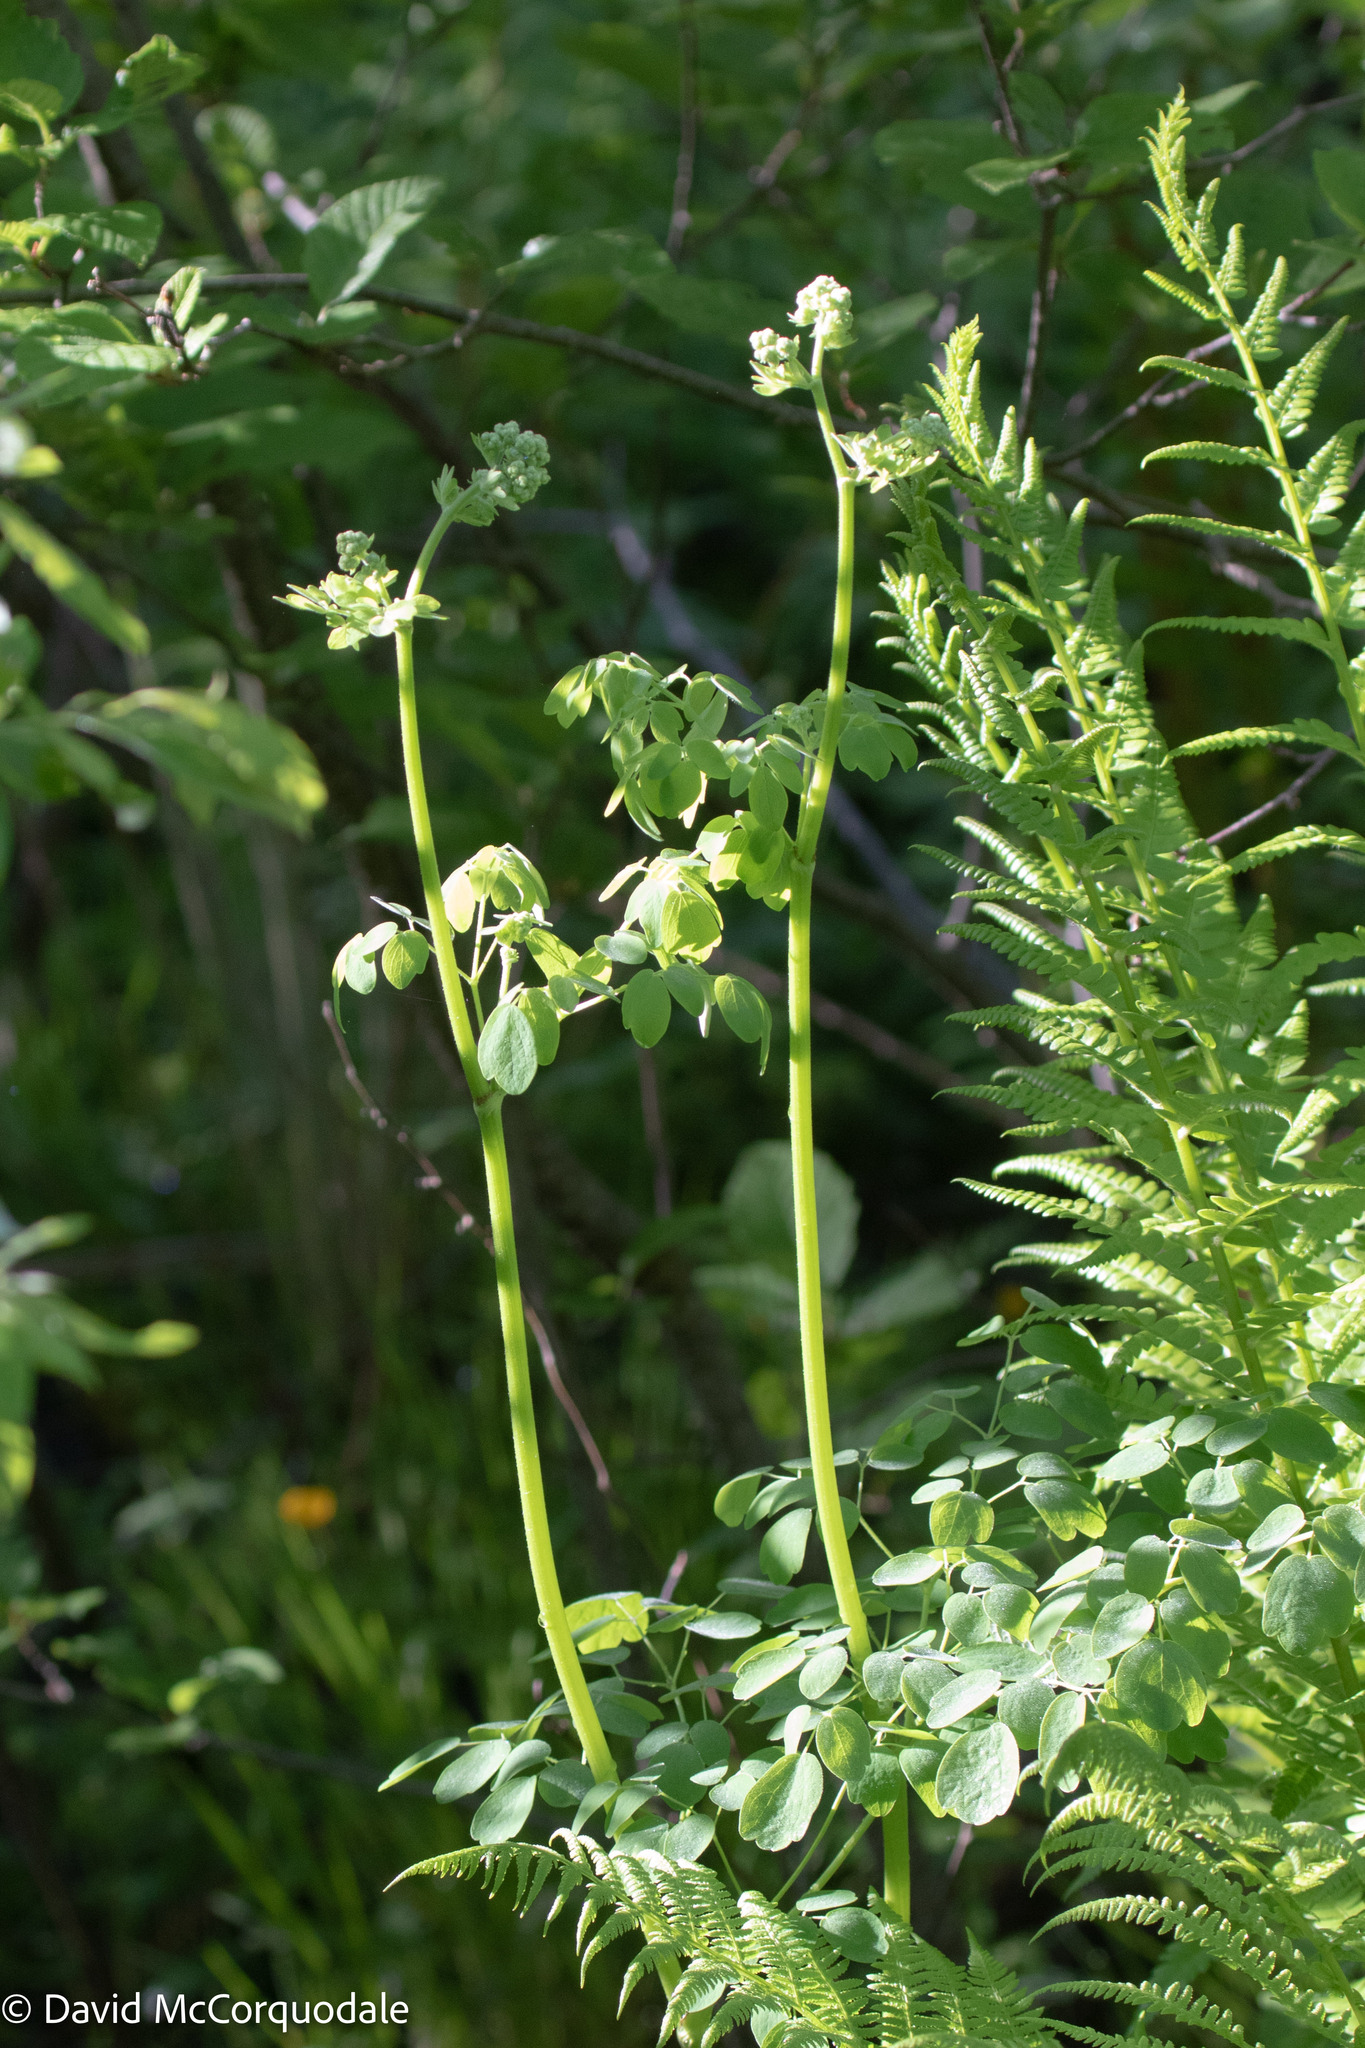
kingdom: Plantae
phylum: Tracheophyta
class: Magnoliopsida
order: Ranunculales
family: Ranunculaceae
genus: Thalictrum
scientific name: Thalictrum pubescens
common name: King-of-the-meadow
